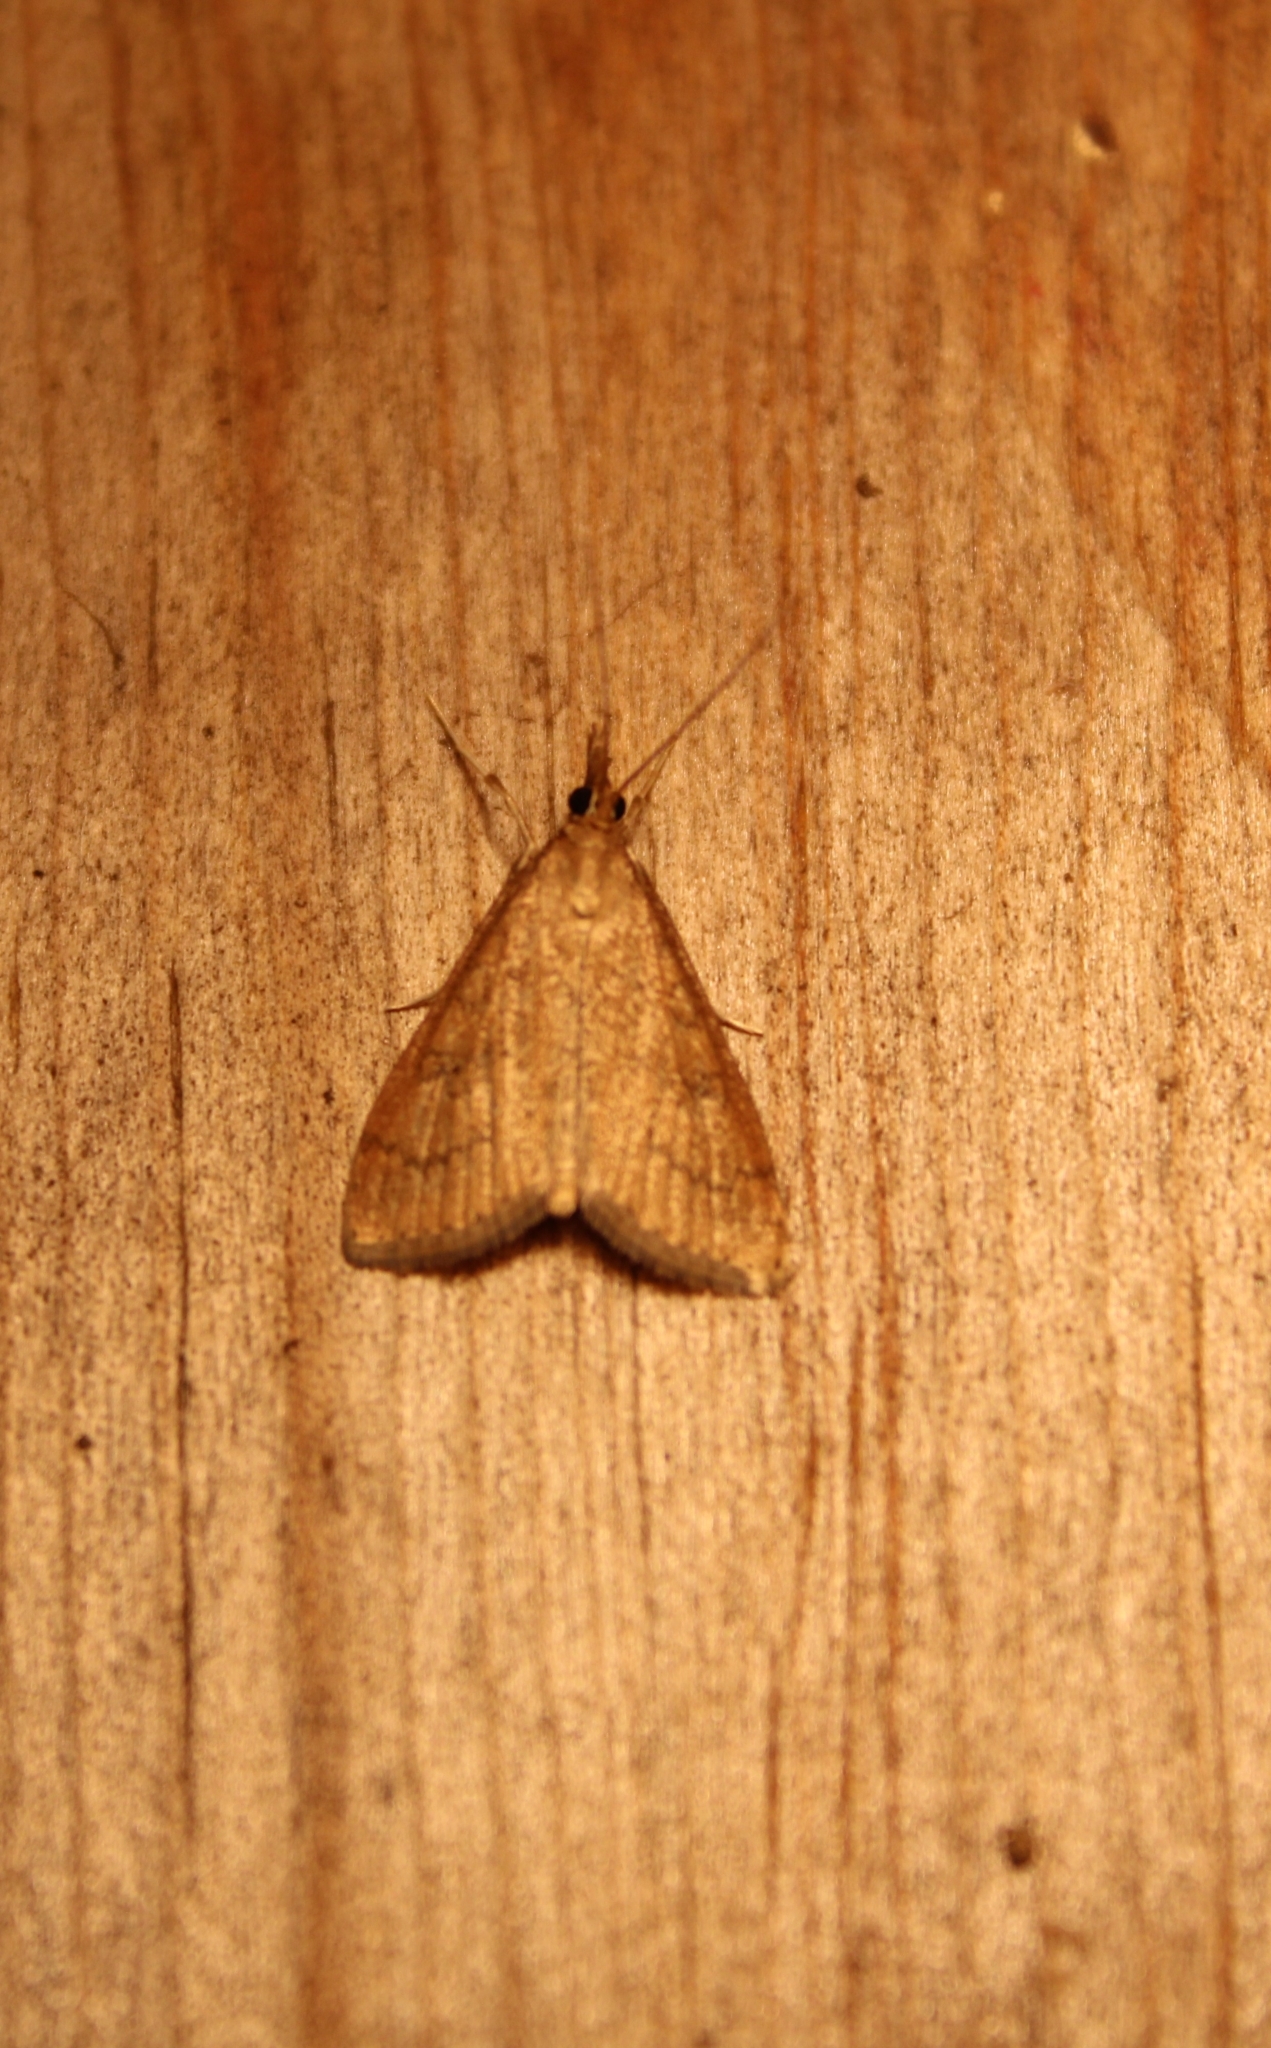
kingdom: Animalia
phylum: Arthropoda
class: Insecta
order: Lepidoptera
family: Crambidae
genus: Udea
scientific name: Udea rubigalis
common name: Celery leaftier moth
